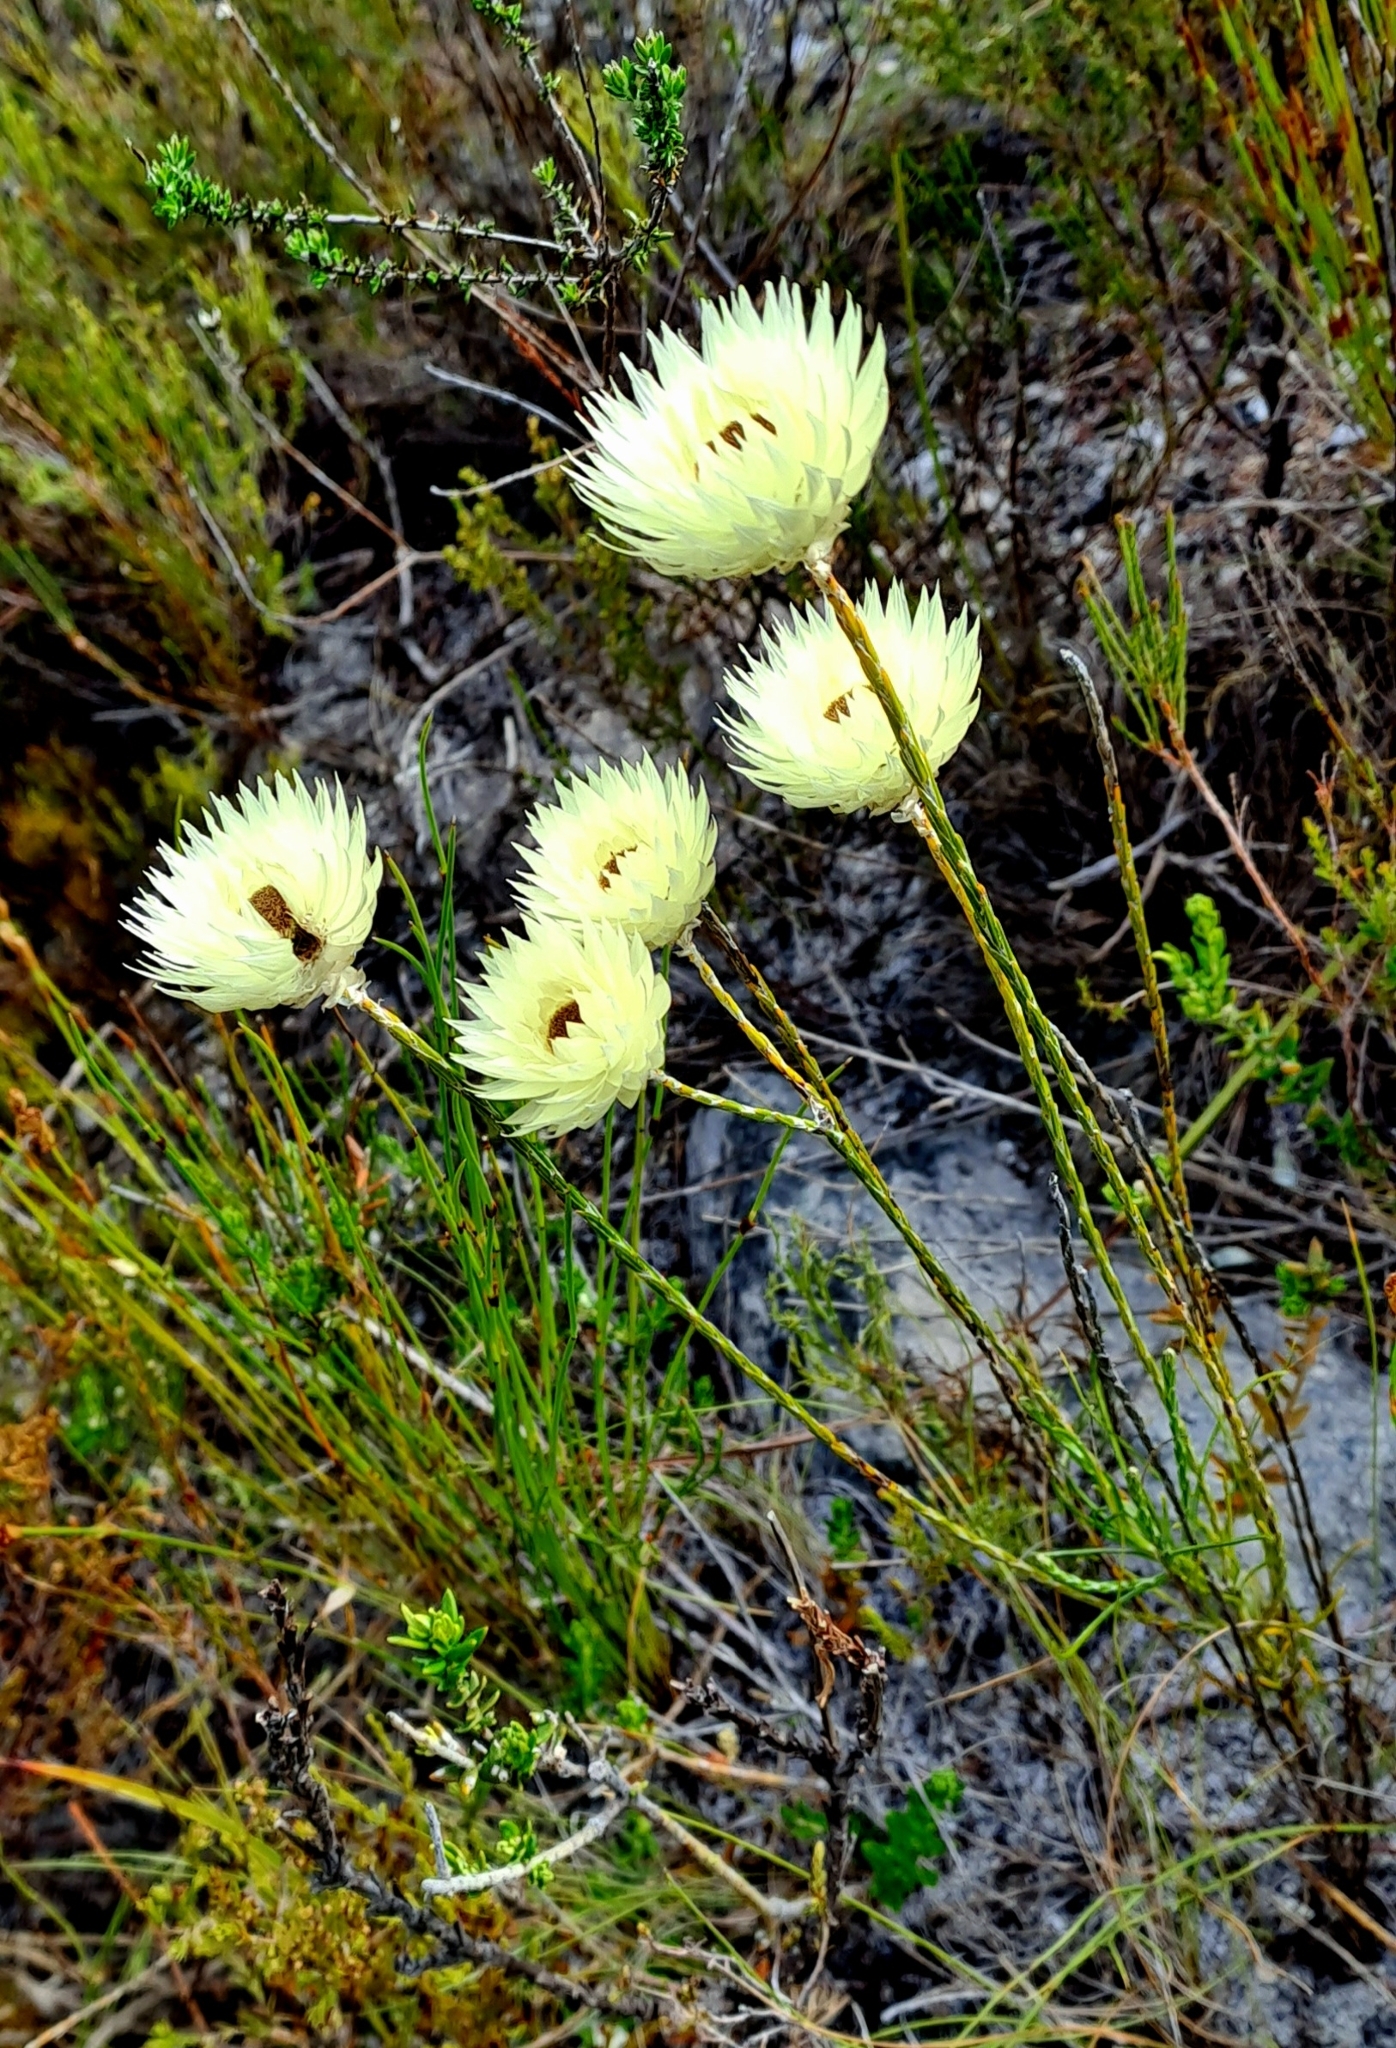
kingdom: Plantae
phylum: Tracheophyta
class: Magnoliopsida
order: Asterales
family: Asteraceae
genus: Edmondia
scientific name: Edmondia sesamoides
